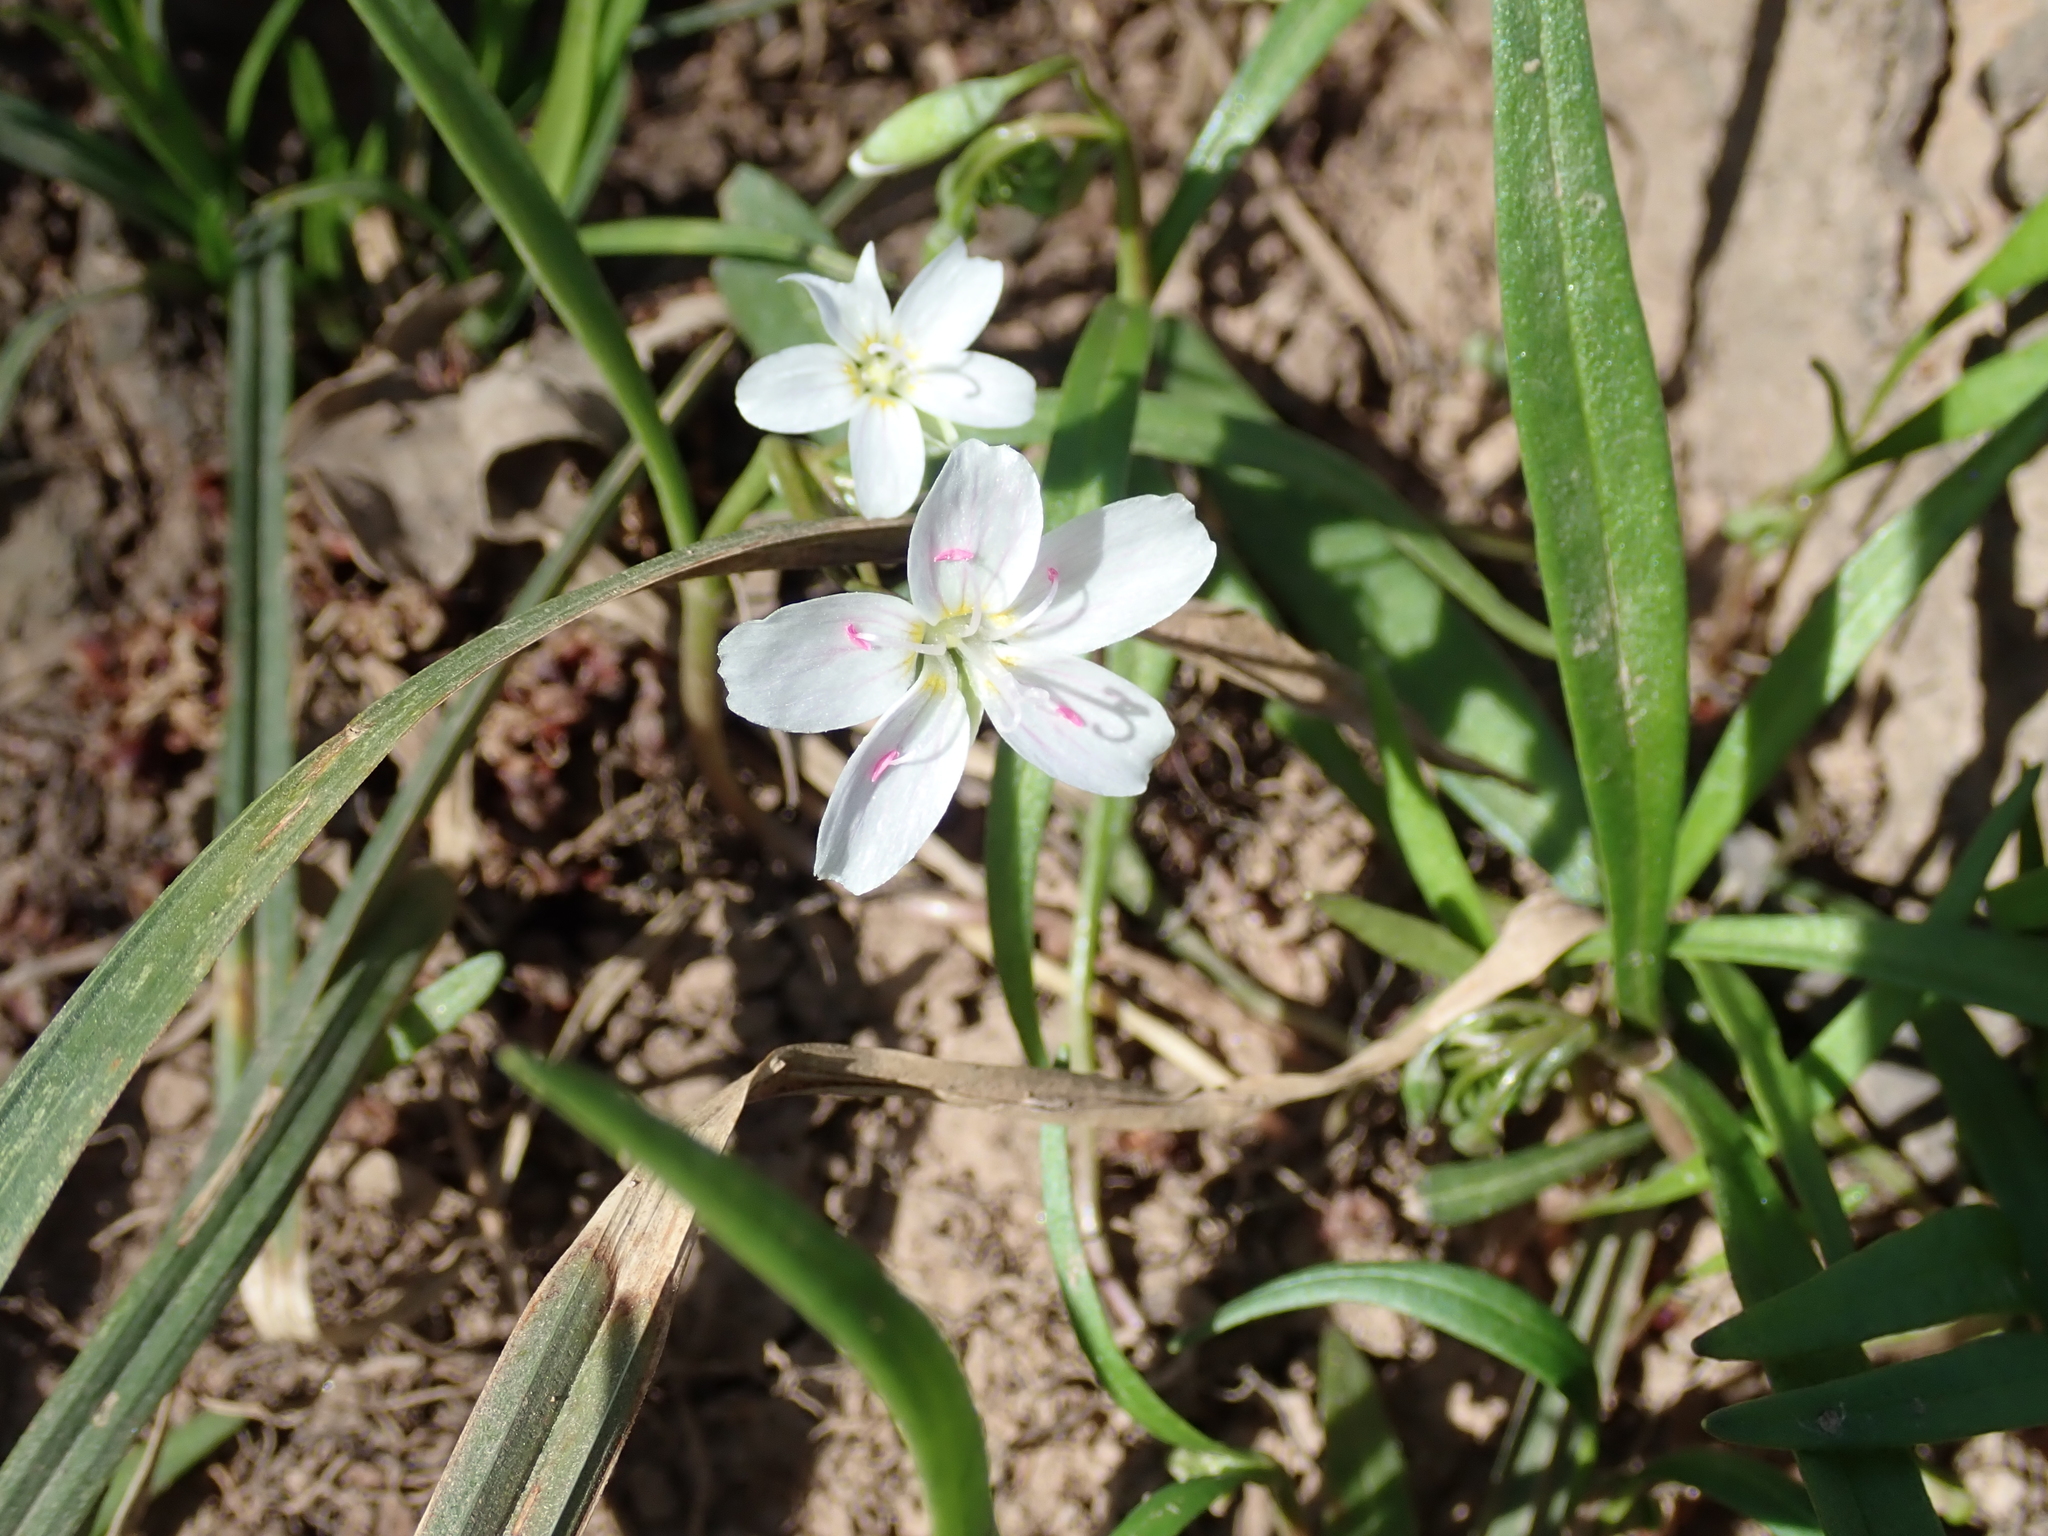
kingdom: Plantae
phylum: Tracheophyta
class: Magnoliopsida
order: Caryophyllales
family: Montiaceae
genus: Claytonia
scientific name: Claytonia virginica
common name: Virginia springbeauty
